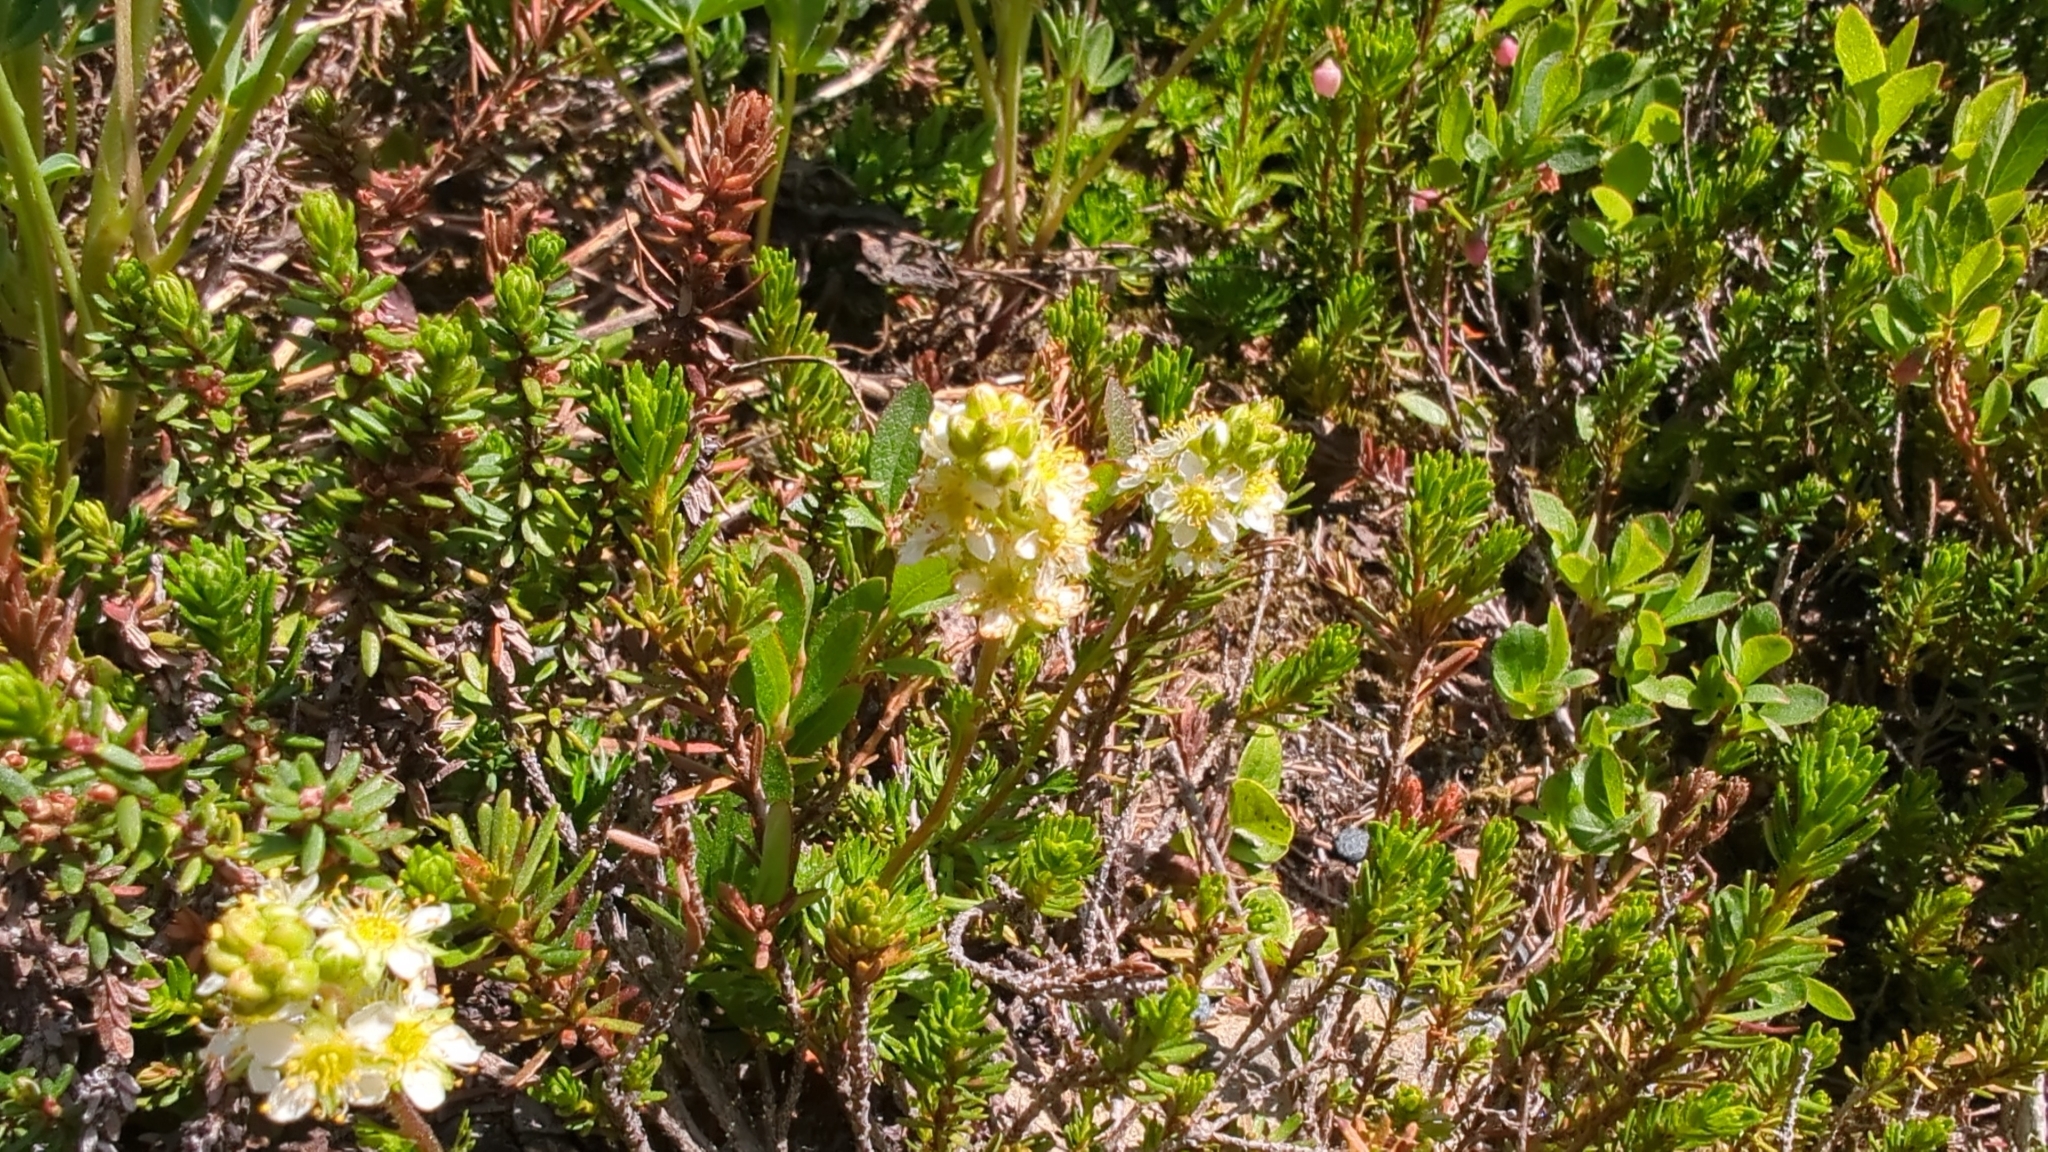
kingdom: Plantae
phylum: Tracheophyta
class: Magnoliopsida
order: Rosales
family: Rosaceae
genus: Luetkea
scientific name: Luetkea pectinata
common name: Partridgefoot
